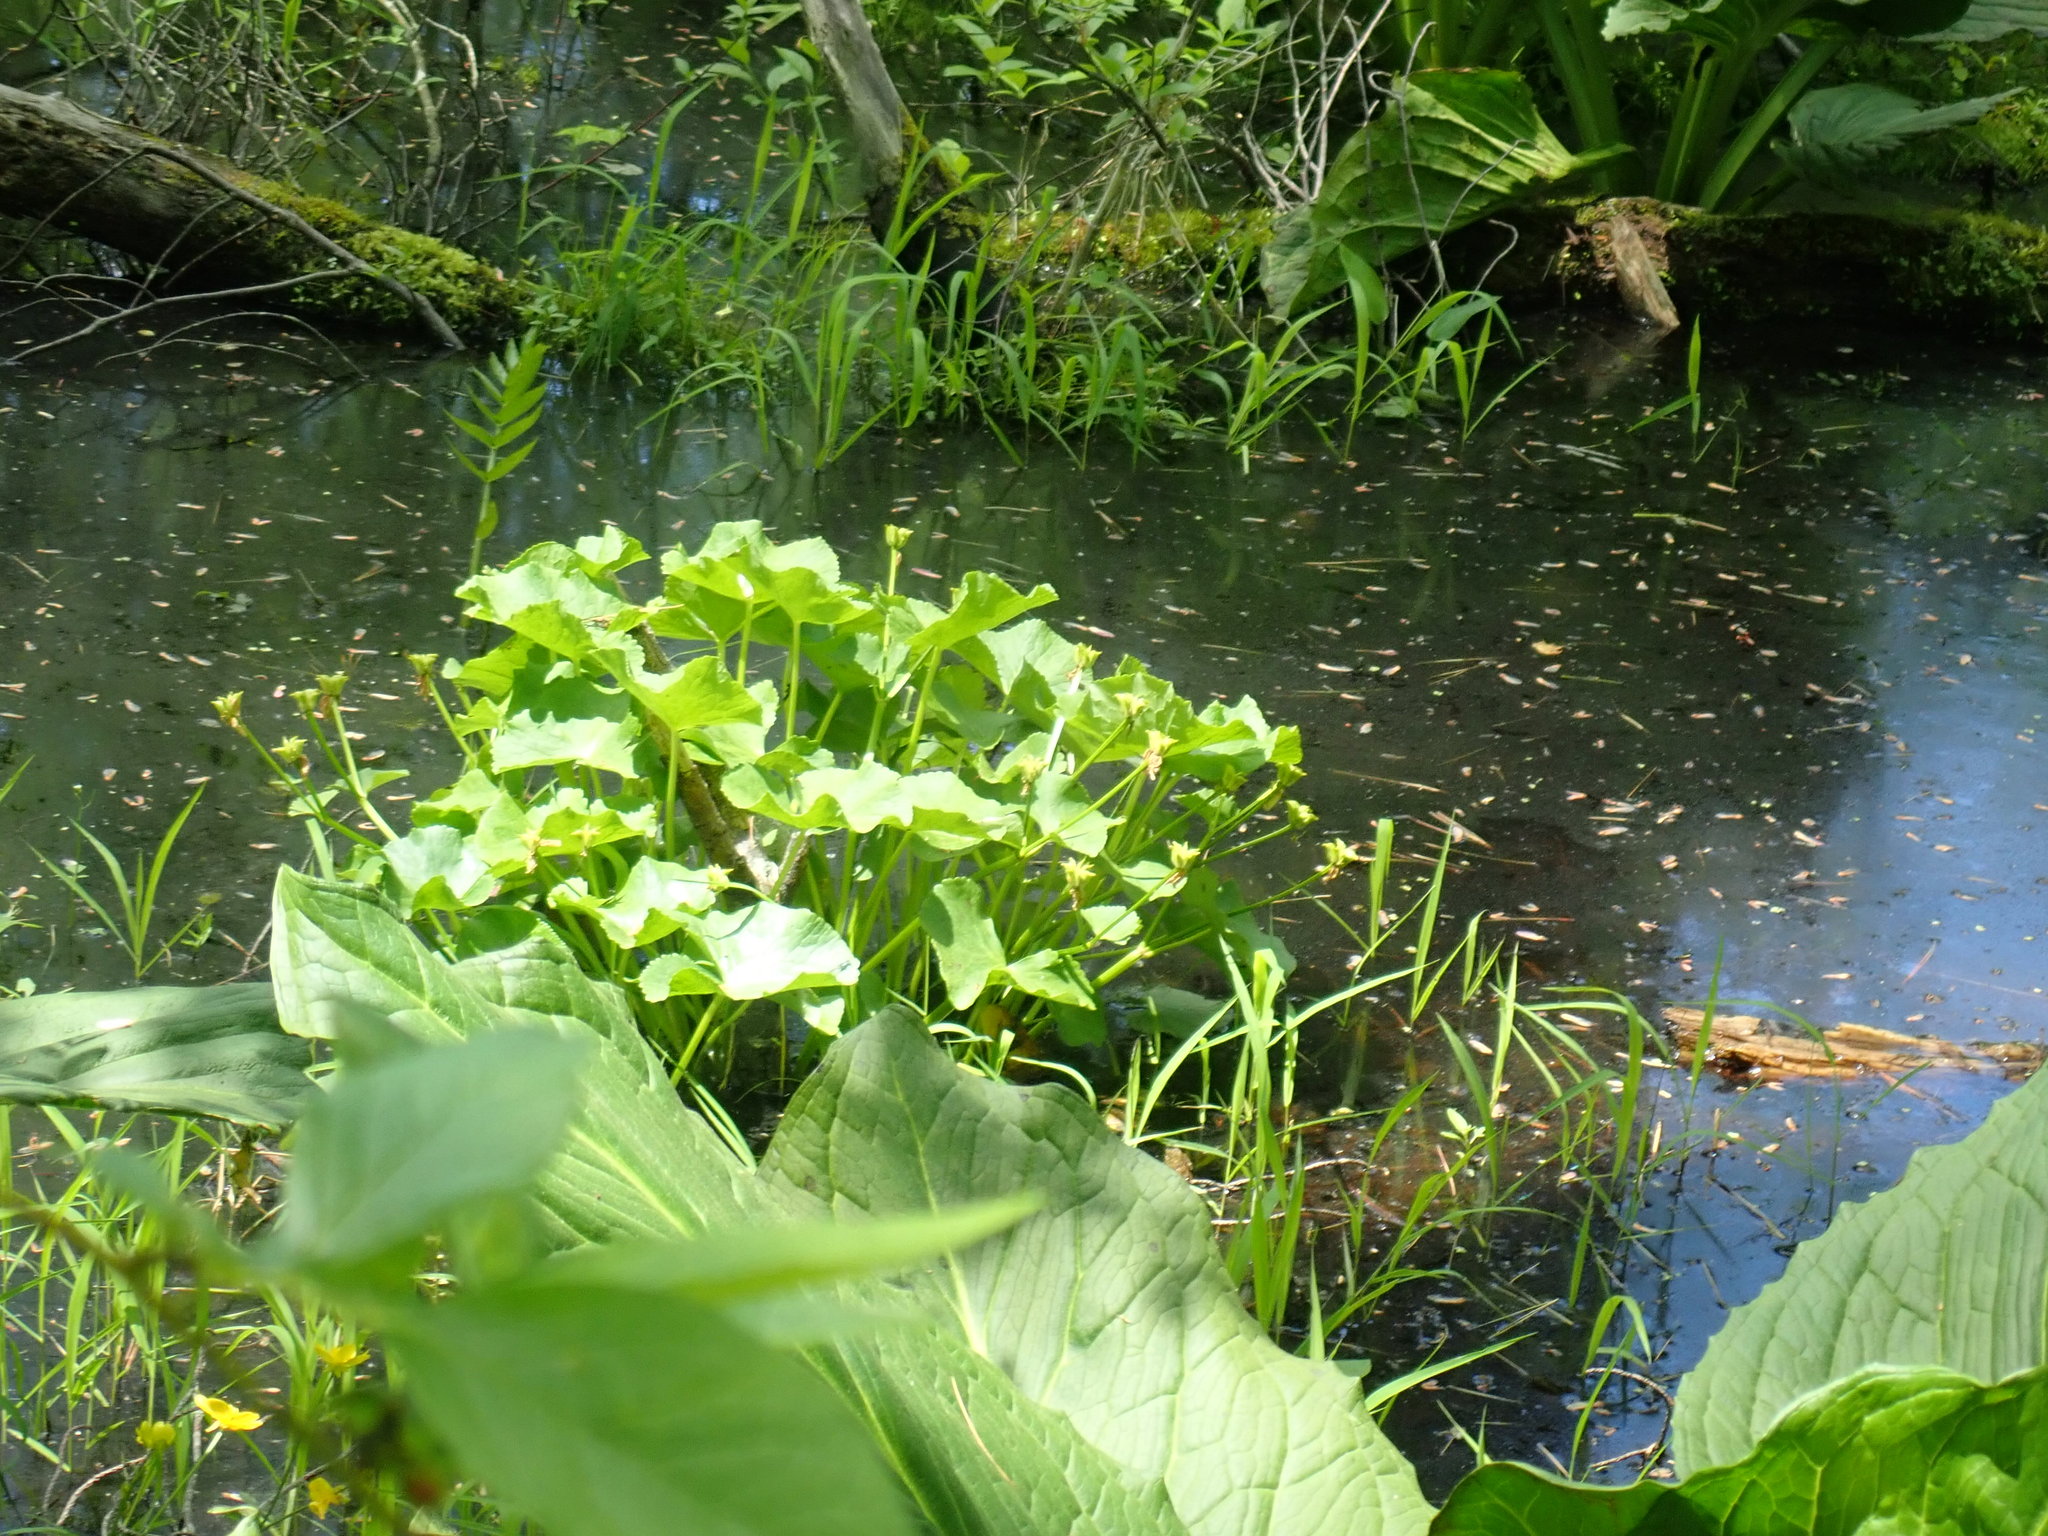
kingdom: Plantae
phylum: Tracheophyta
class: Magnoliopsida
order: Ranunculales
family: Ranunculaceae
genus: Caltha
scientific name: Caltha palustris
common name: Marsh marigold
